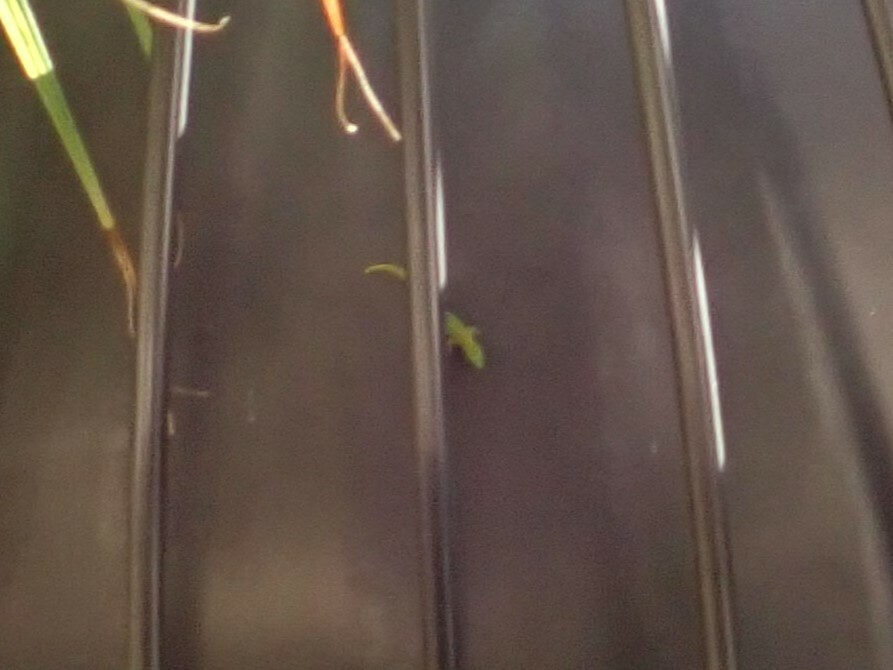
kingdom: Animalia
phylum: Chordata
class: Squamata
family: Gekkonidae
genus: Phelsuma
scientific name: Phelsuma laticauda
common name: Gold dust day gecko
